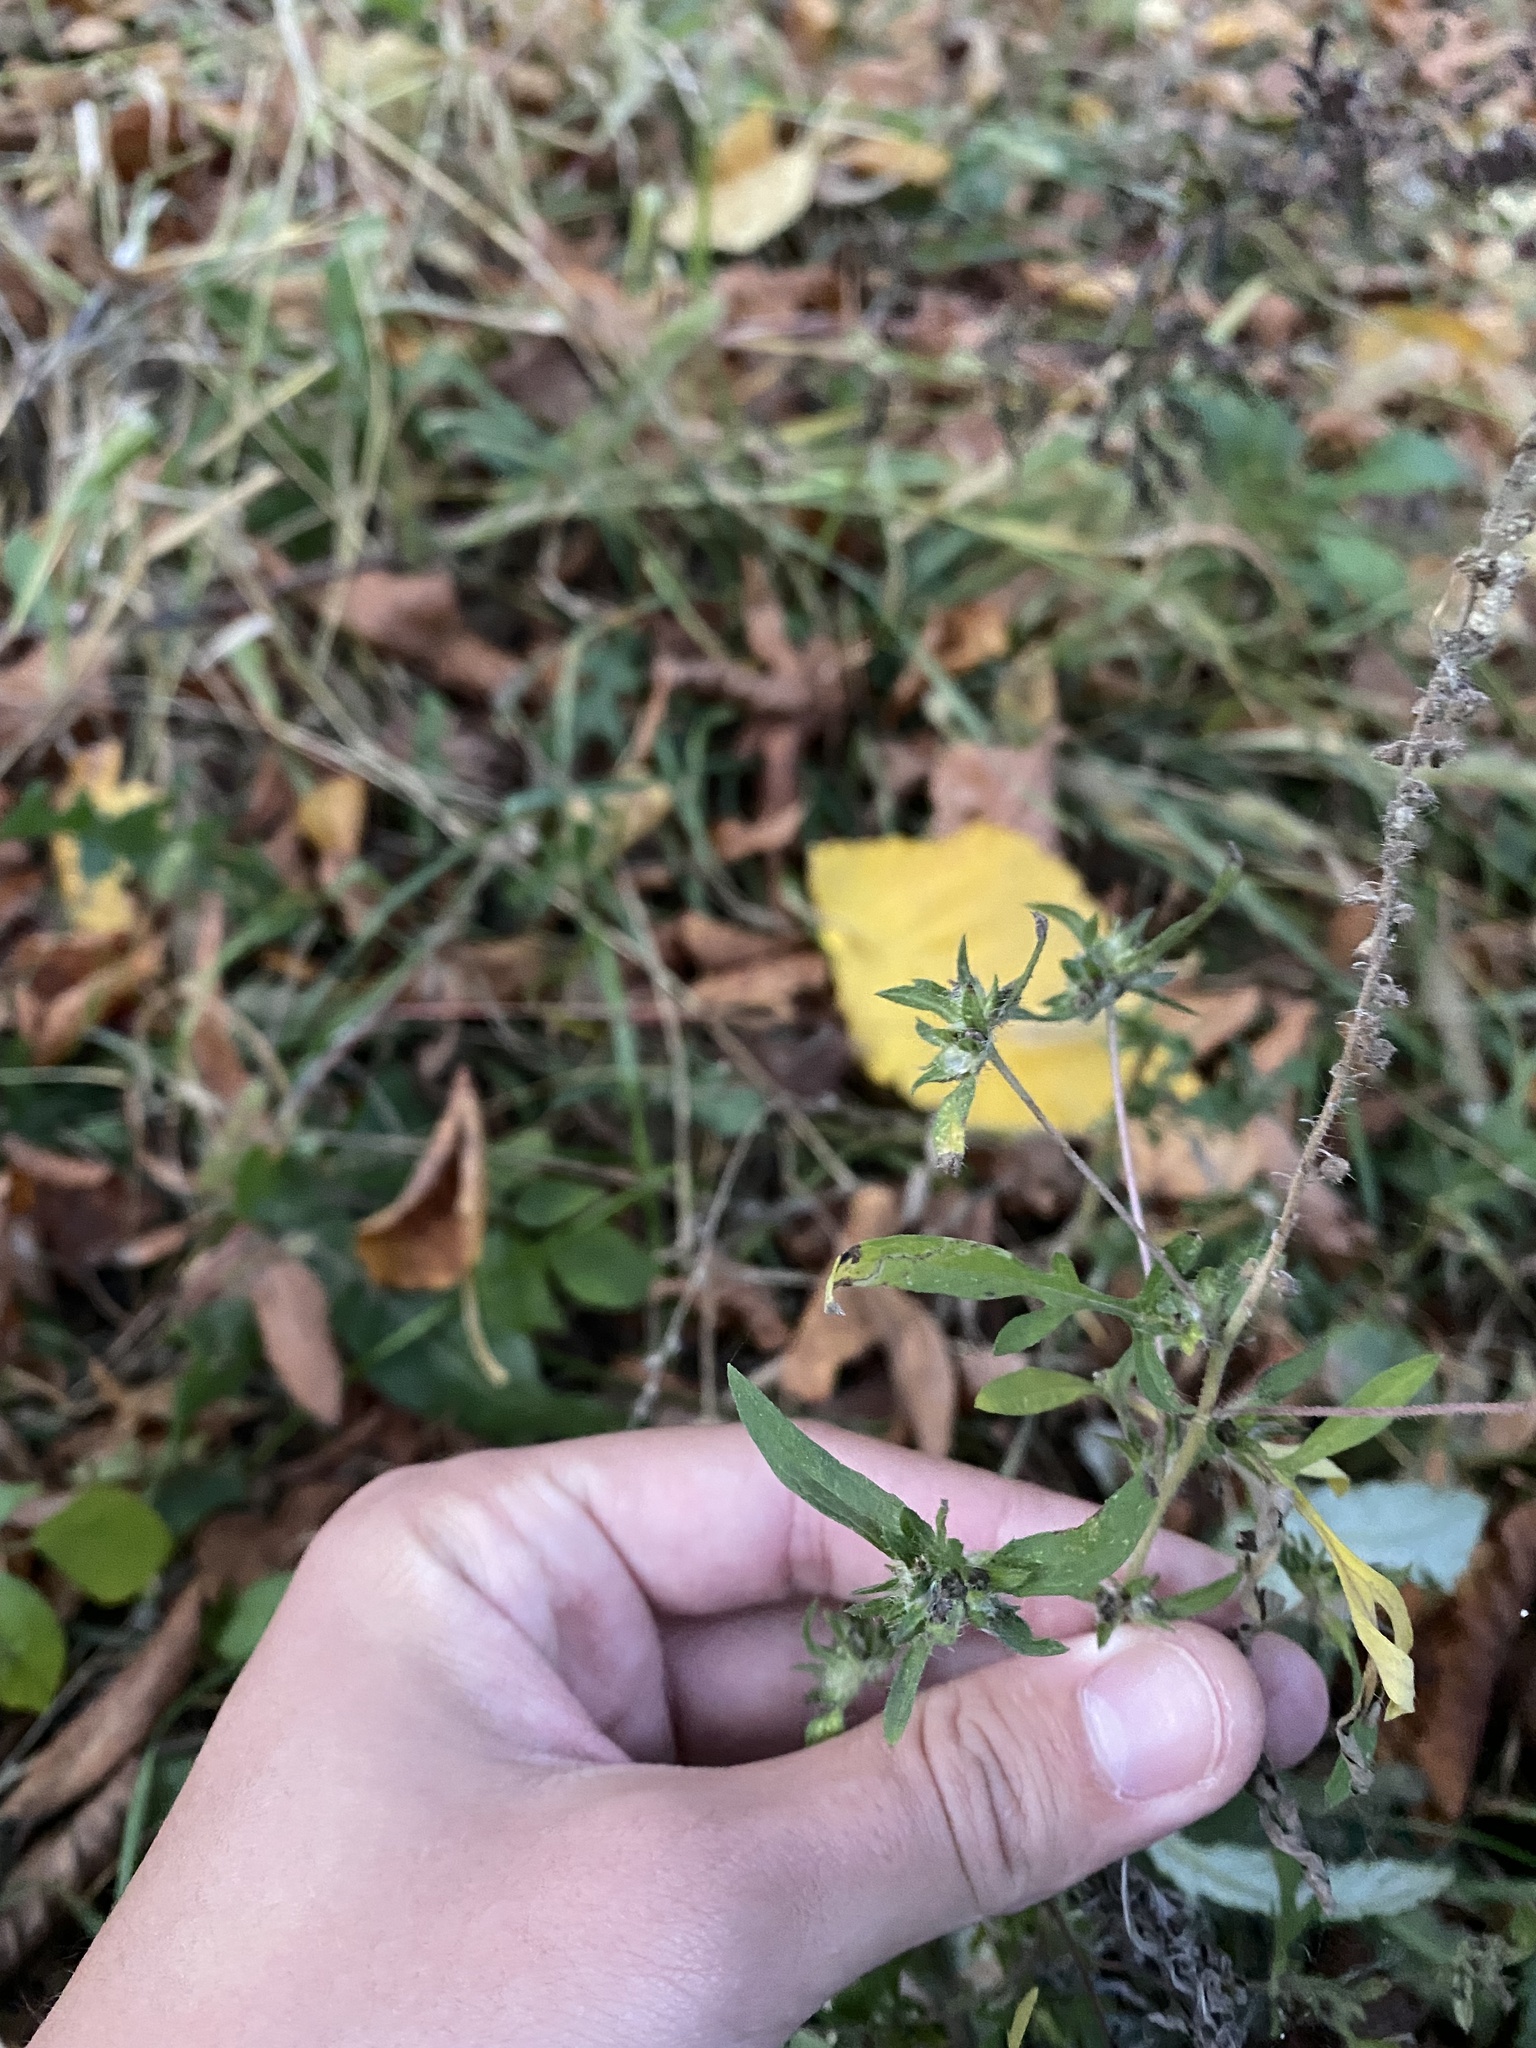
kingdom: Plantae
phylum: Tracheophyta
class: Magnoliopsida
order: Asterales
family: Asteraceae
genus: Ambrosia
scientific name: Ambrosia artemisiifolia
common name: Annual ragweed
